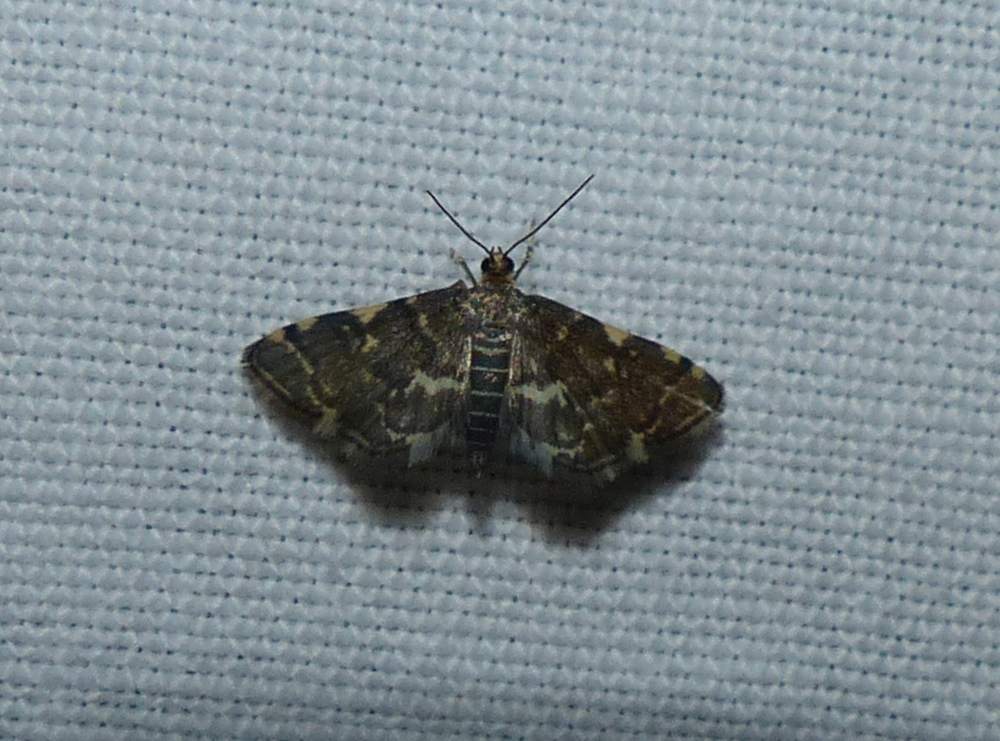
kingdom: Animalia
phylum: Arthropoda
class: Insecta
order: Lepidoptera
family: Crambidae
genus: Anageshna
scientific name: Anageshna primordialis
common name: Yellow-spotted webworm moth
